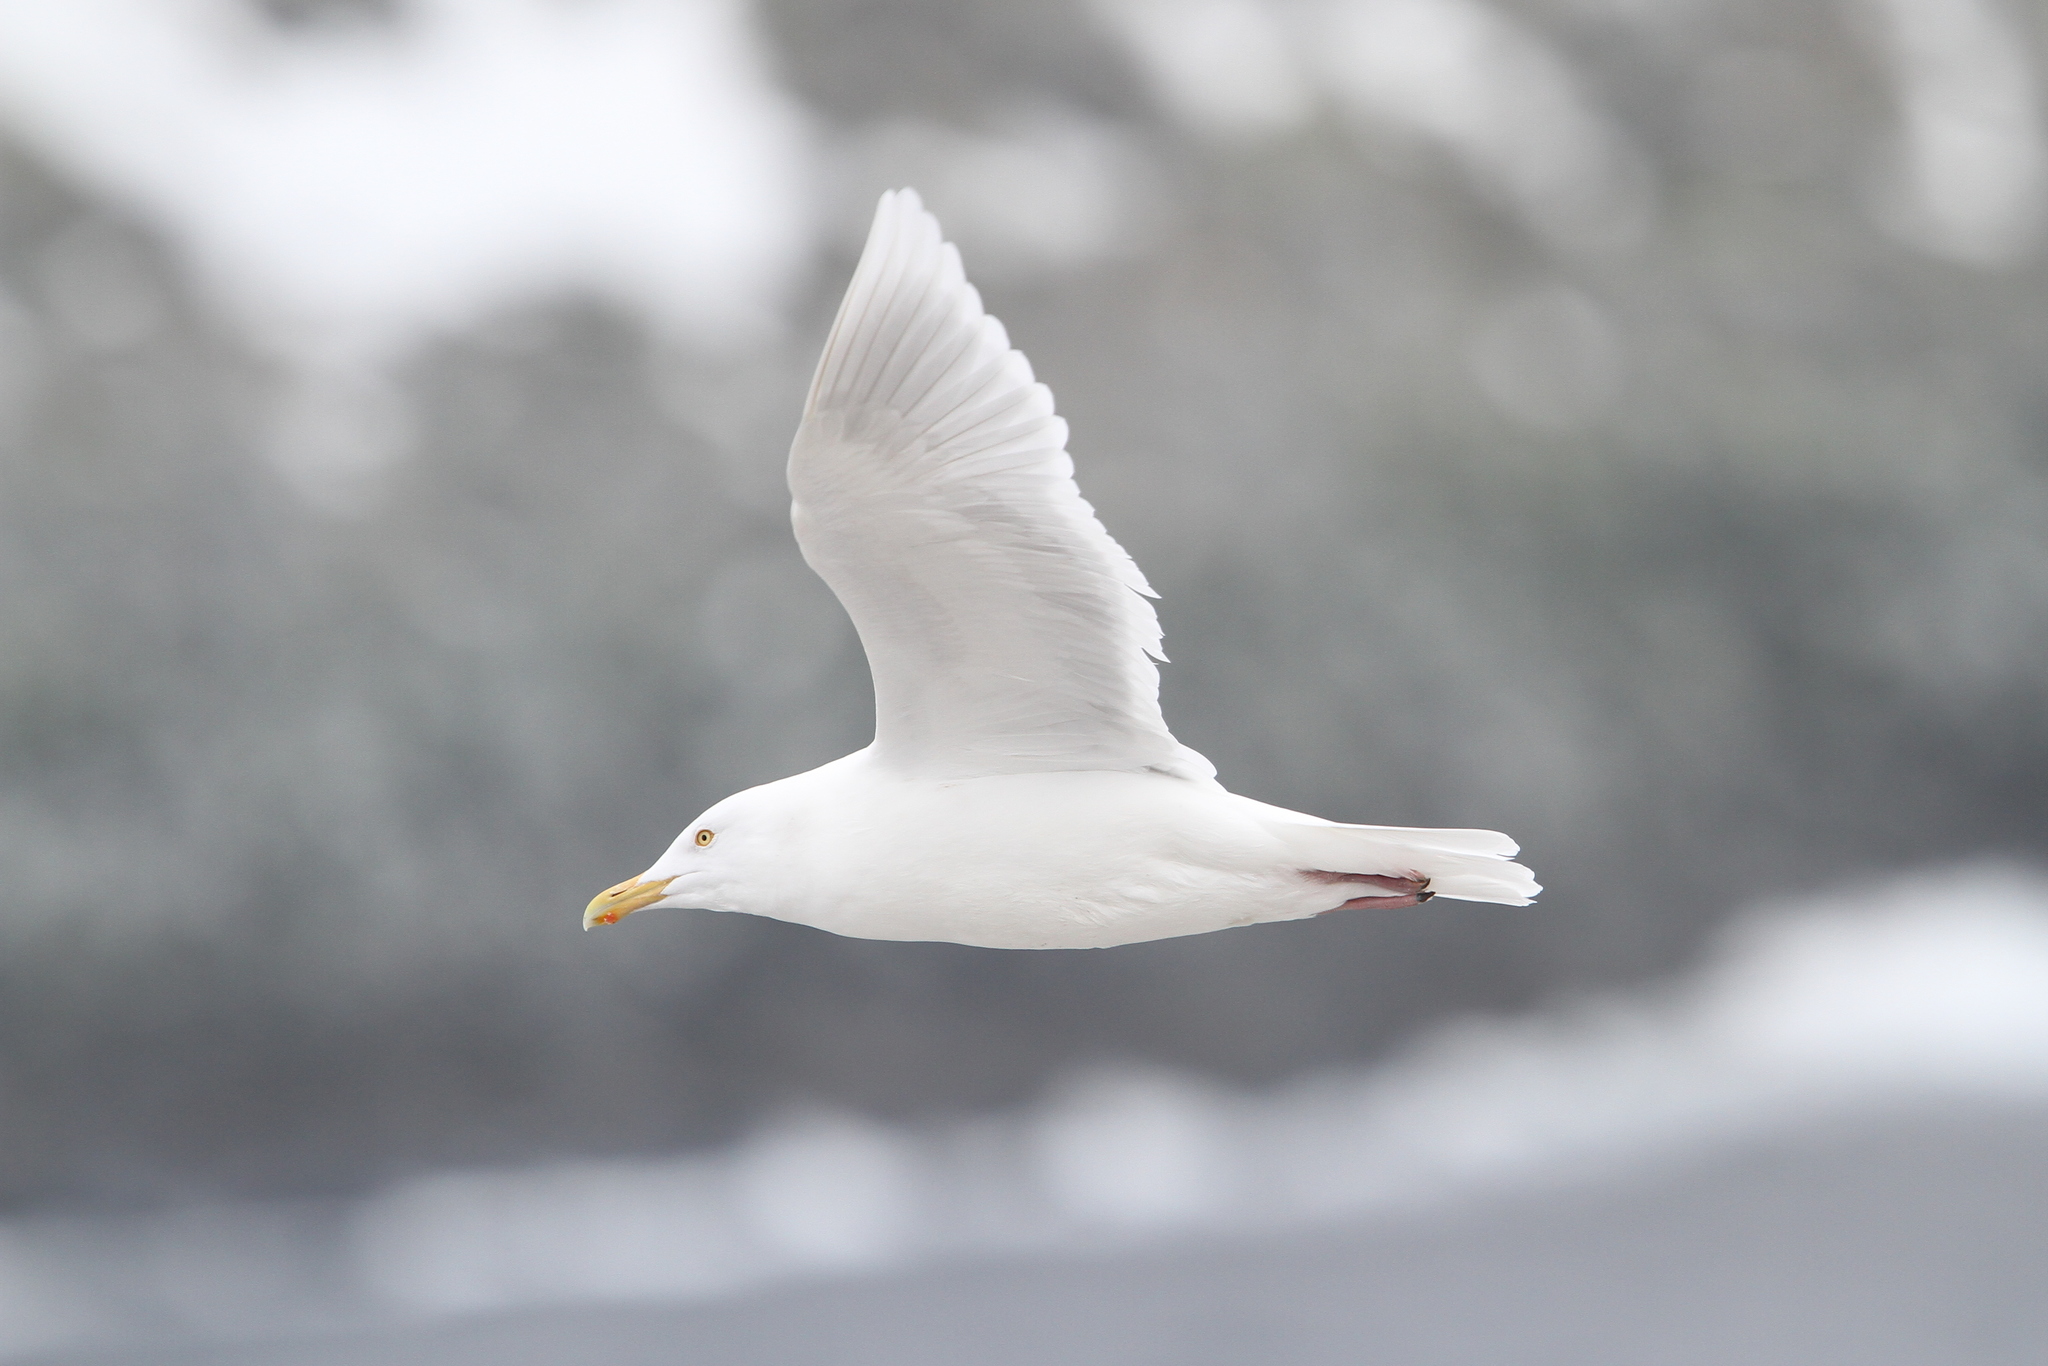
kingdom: Animalia
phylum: Chordata
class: Aves
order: Charadriiformes
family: Laridae
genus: Larus
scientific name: Larus hyperboreus
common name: Glaucous gull
